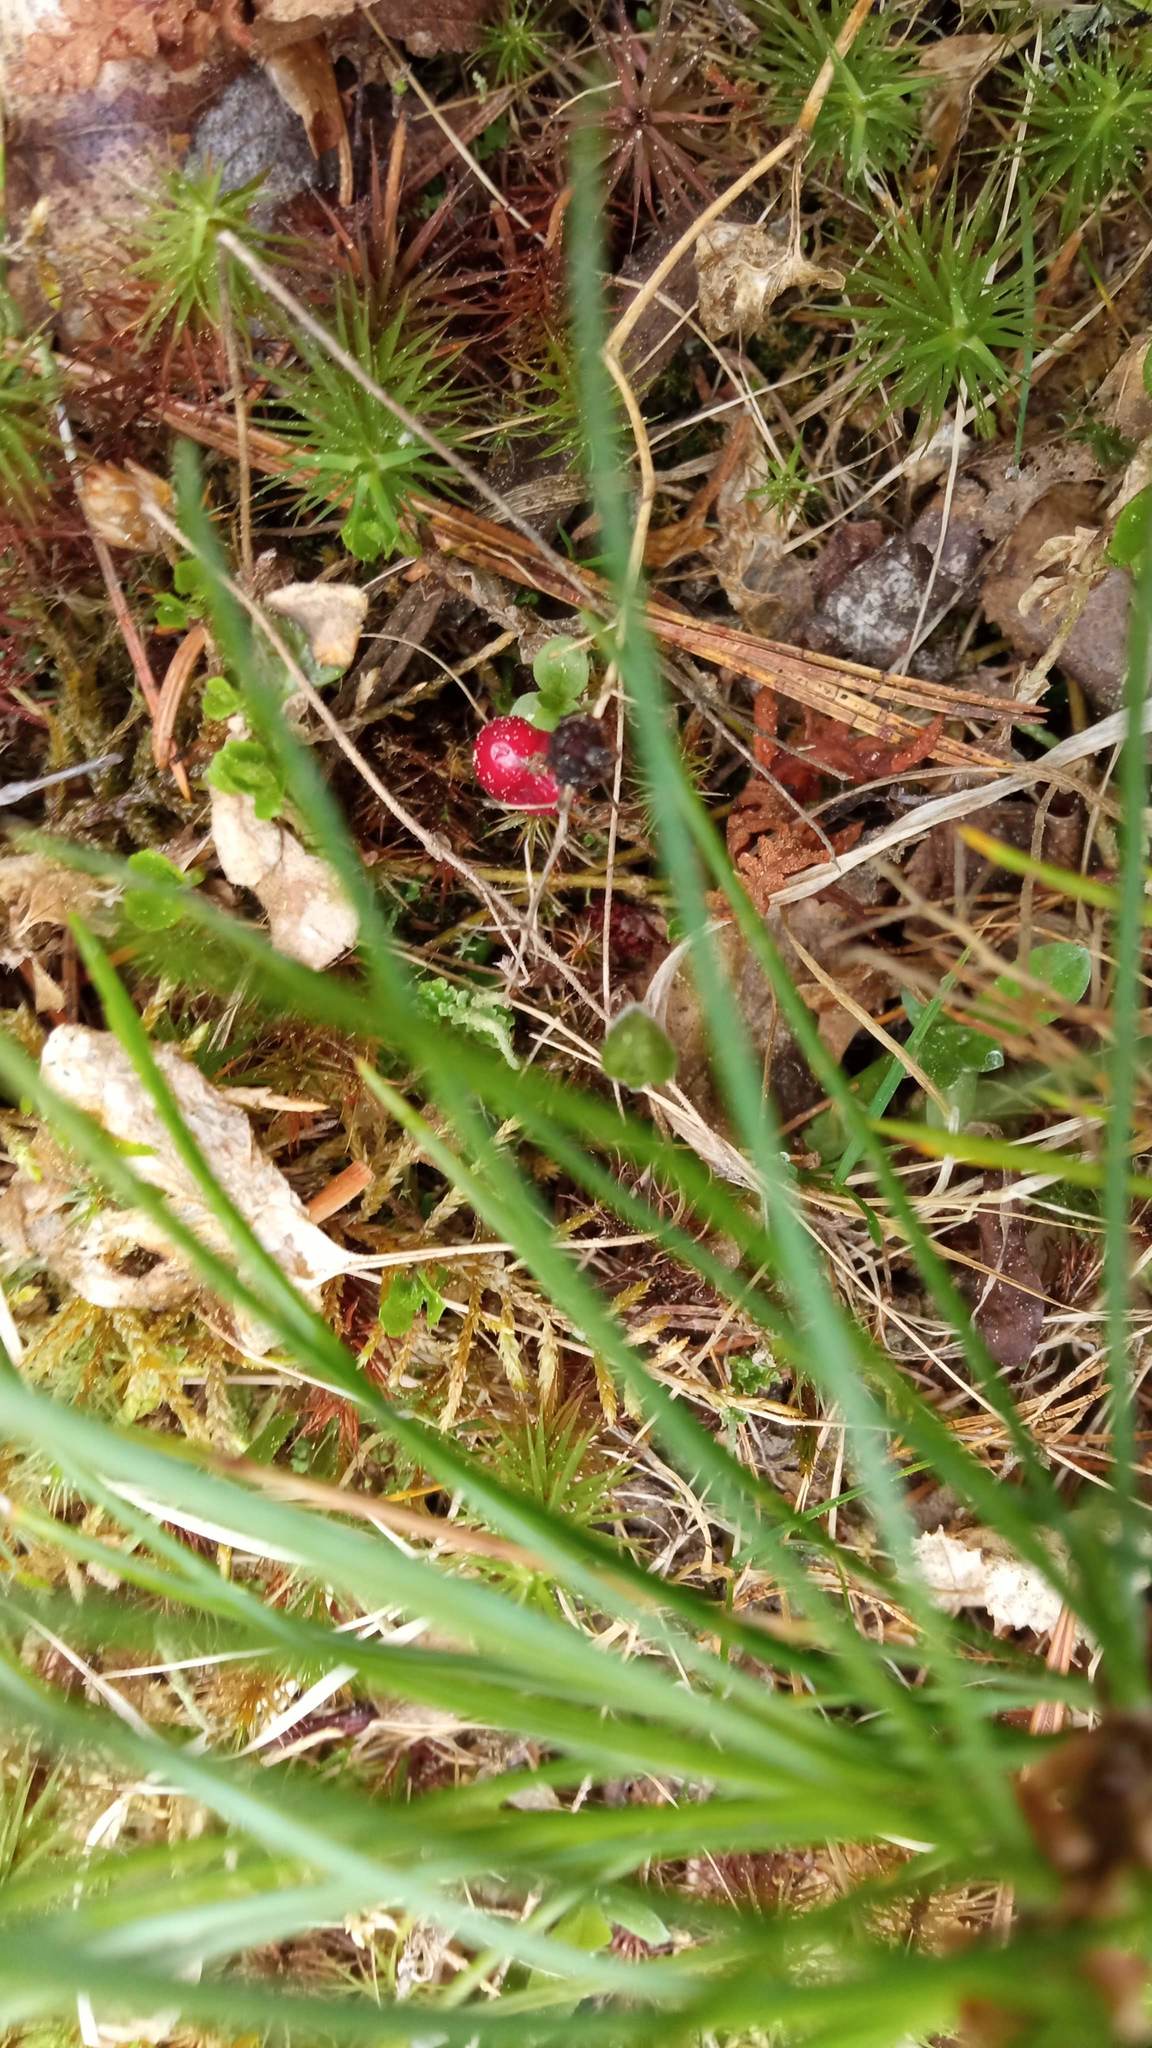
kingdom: Plantae
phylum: Tracheophyta
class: Liliopsida
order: Asparagales
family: Asparagaceae
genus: Maianthemum
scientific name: Maianthemum bifolium
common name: May lily
